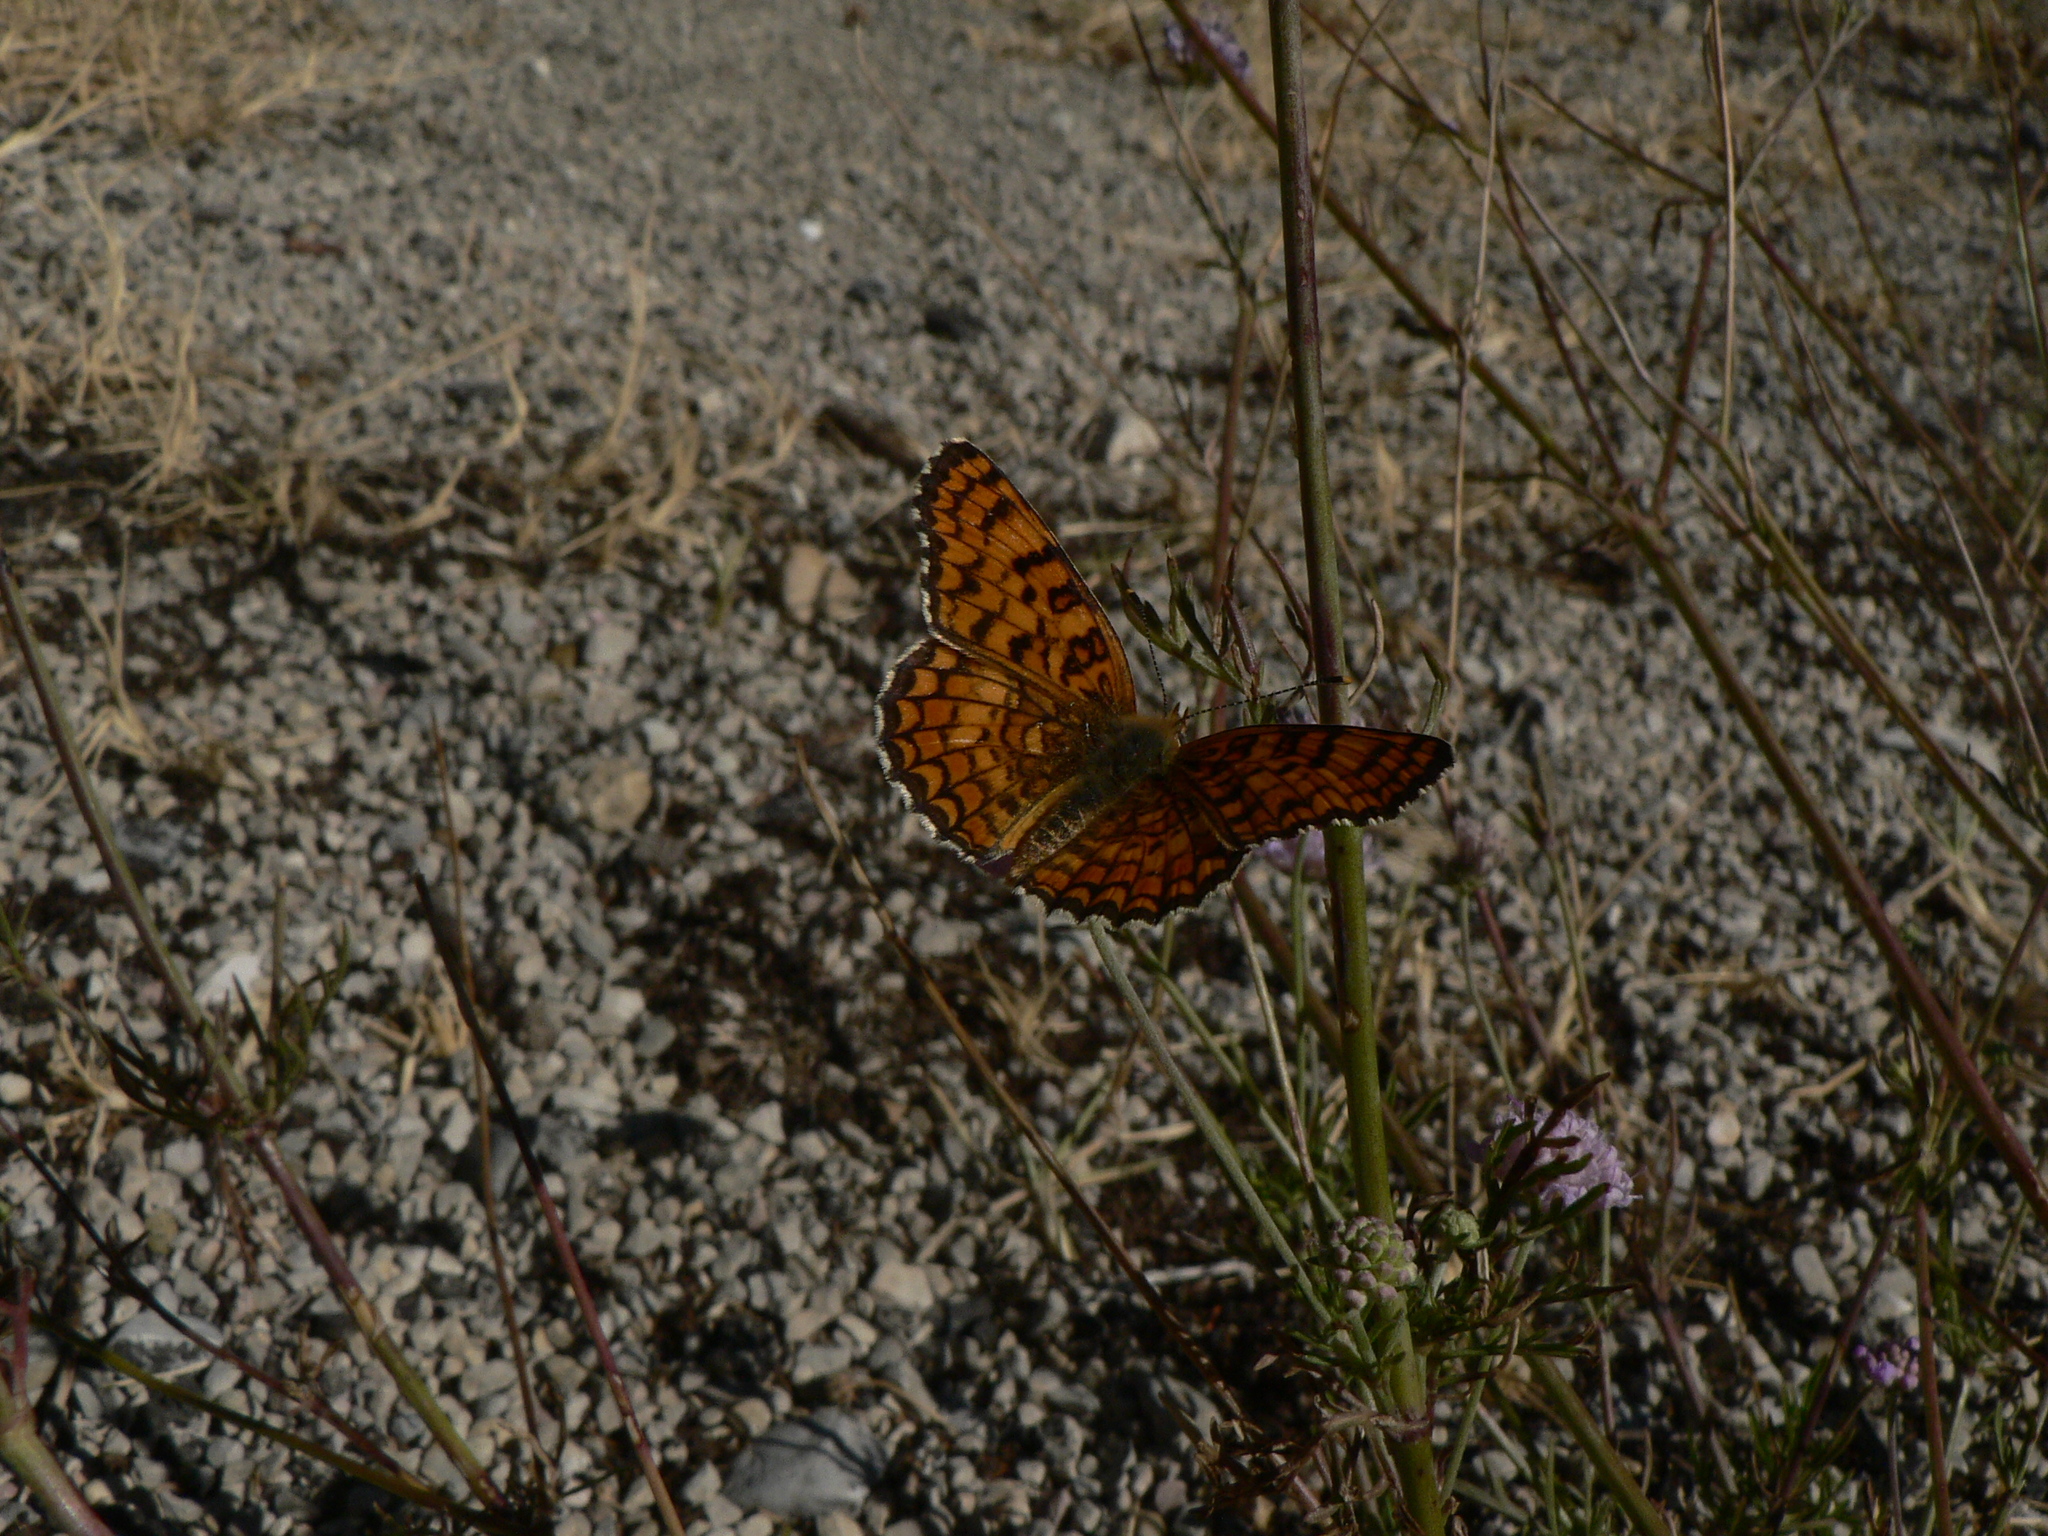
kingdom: Animalia
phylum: Arthropoda
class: Insecta
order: Lepidoptera
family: Nymphalidae
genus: Melitaea
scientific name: Melitaea phoebe
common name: Knapweed fritillary
